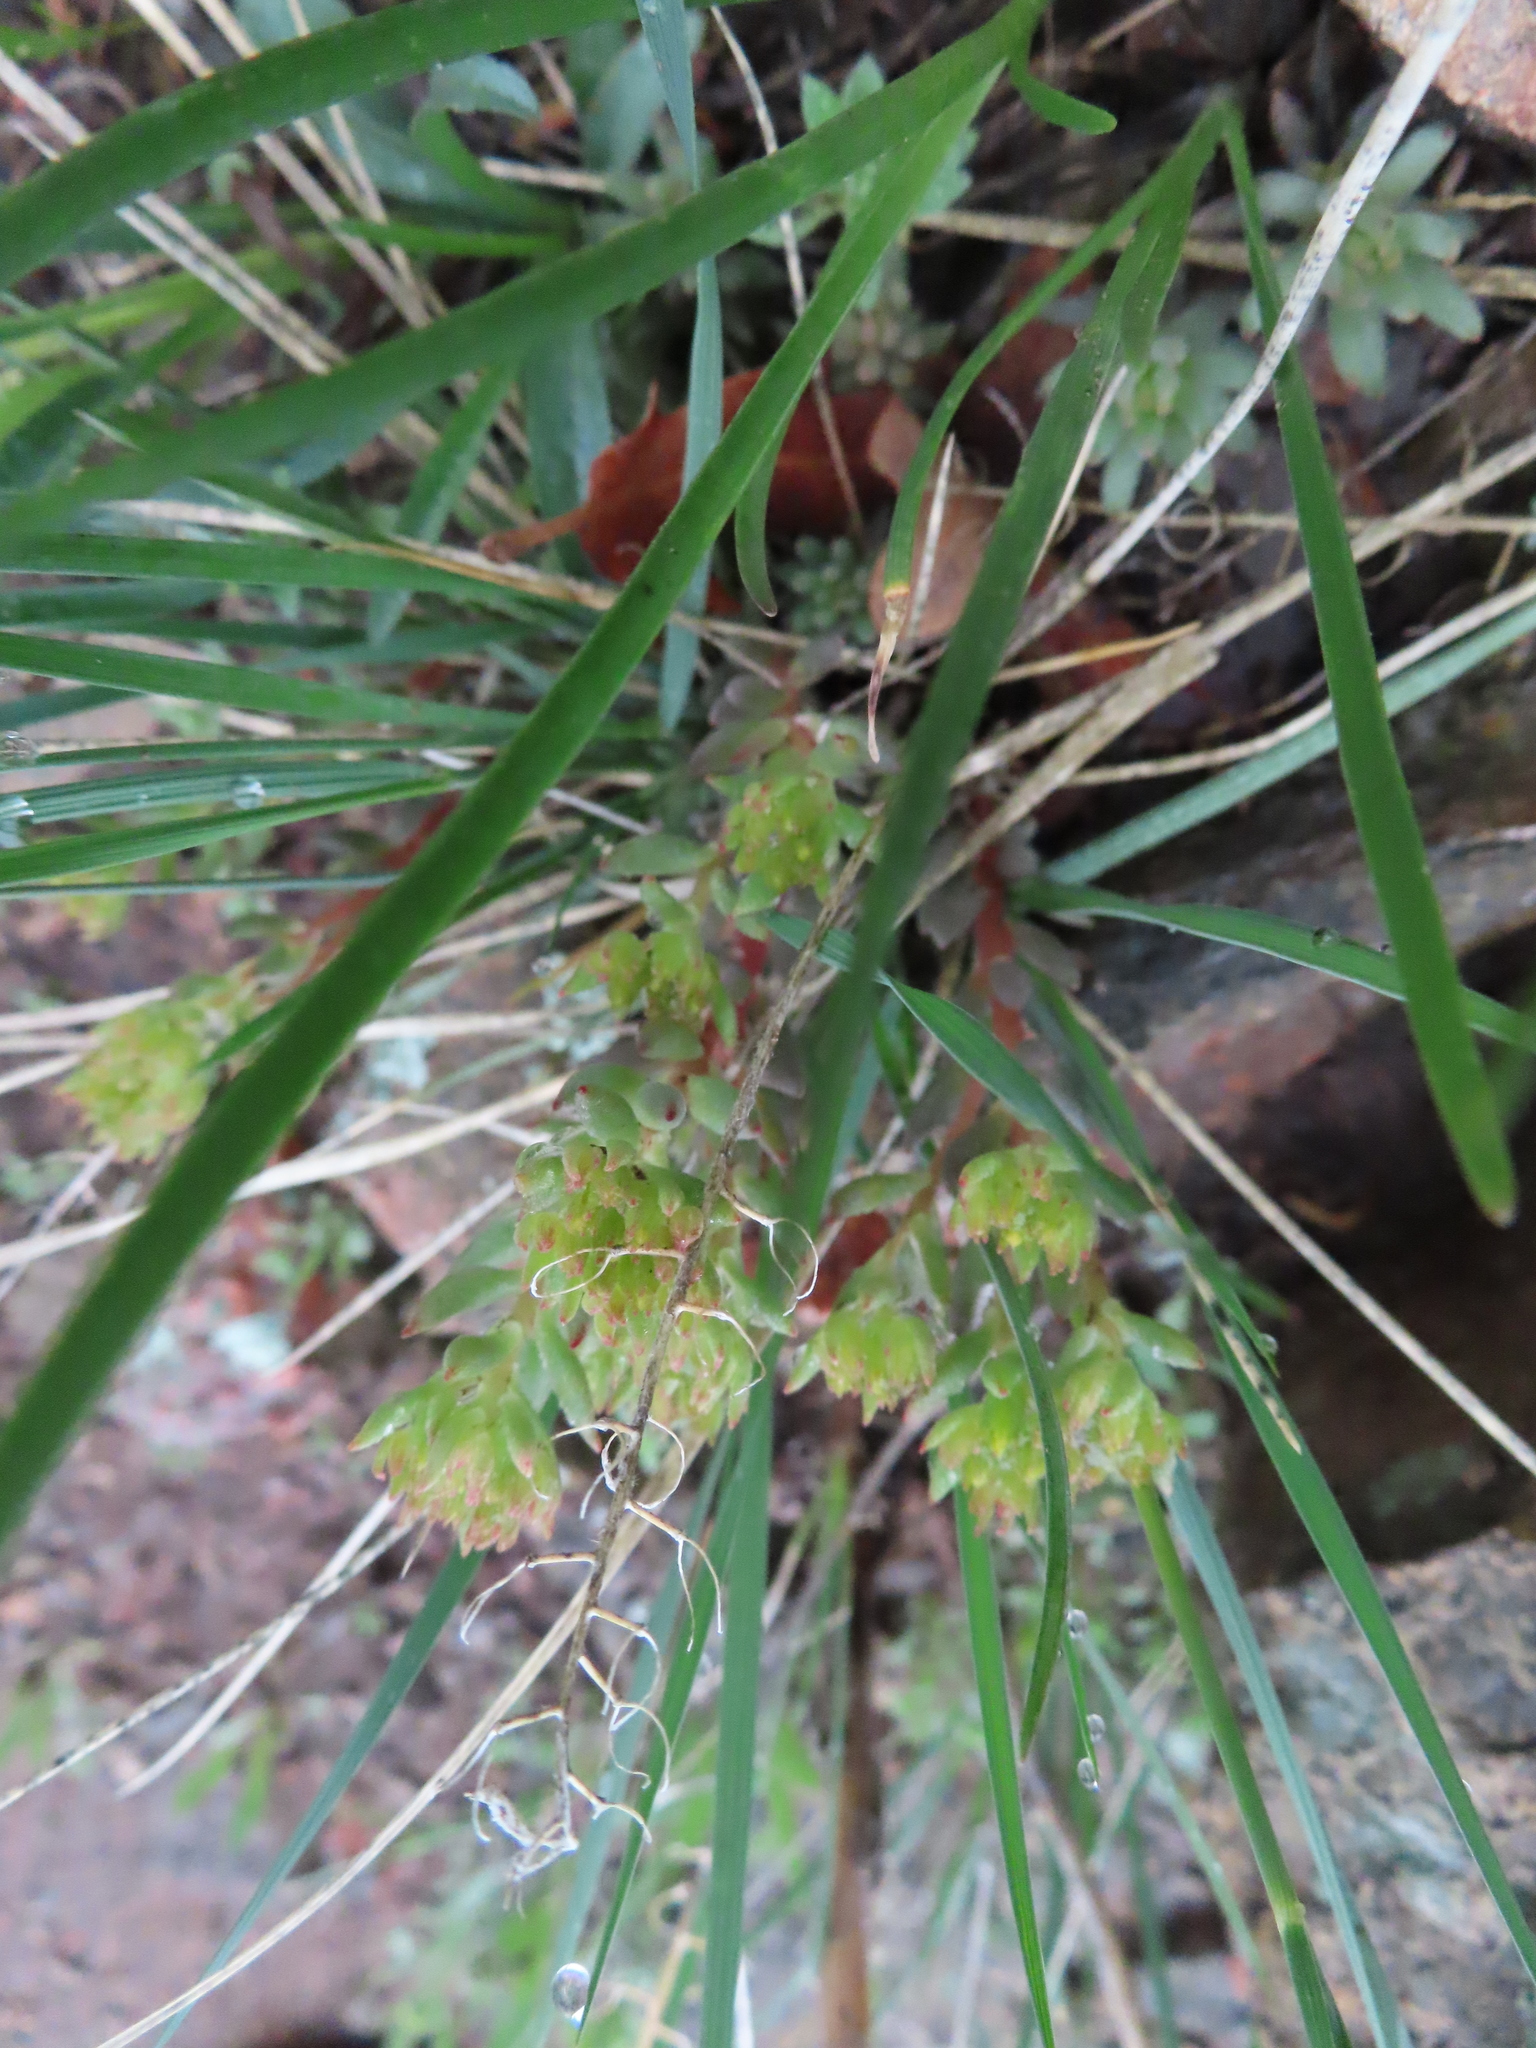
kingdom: Plantae
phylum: Tracheophyta
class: Magnoliopsida
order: Saxifragales
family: Crassulaceae
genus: Sedum
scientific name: Sedum lanceolatum
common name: Common stonecrop
